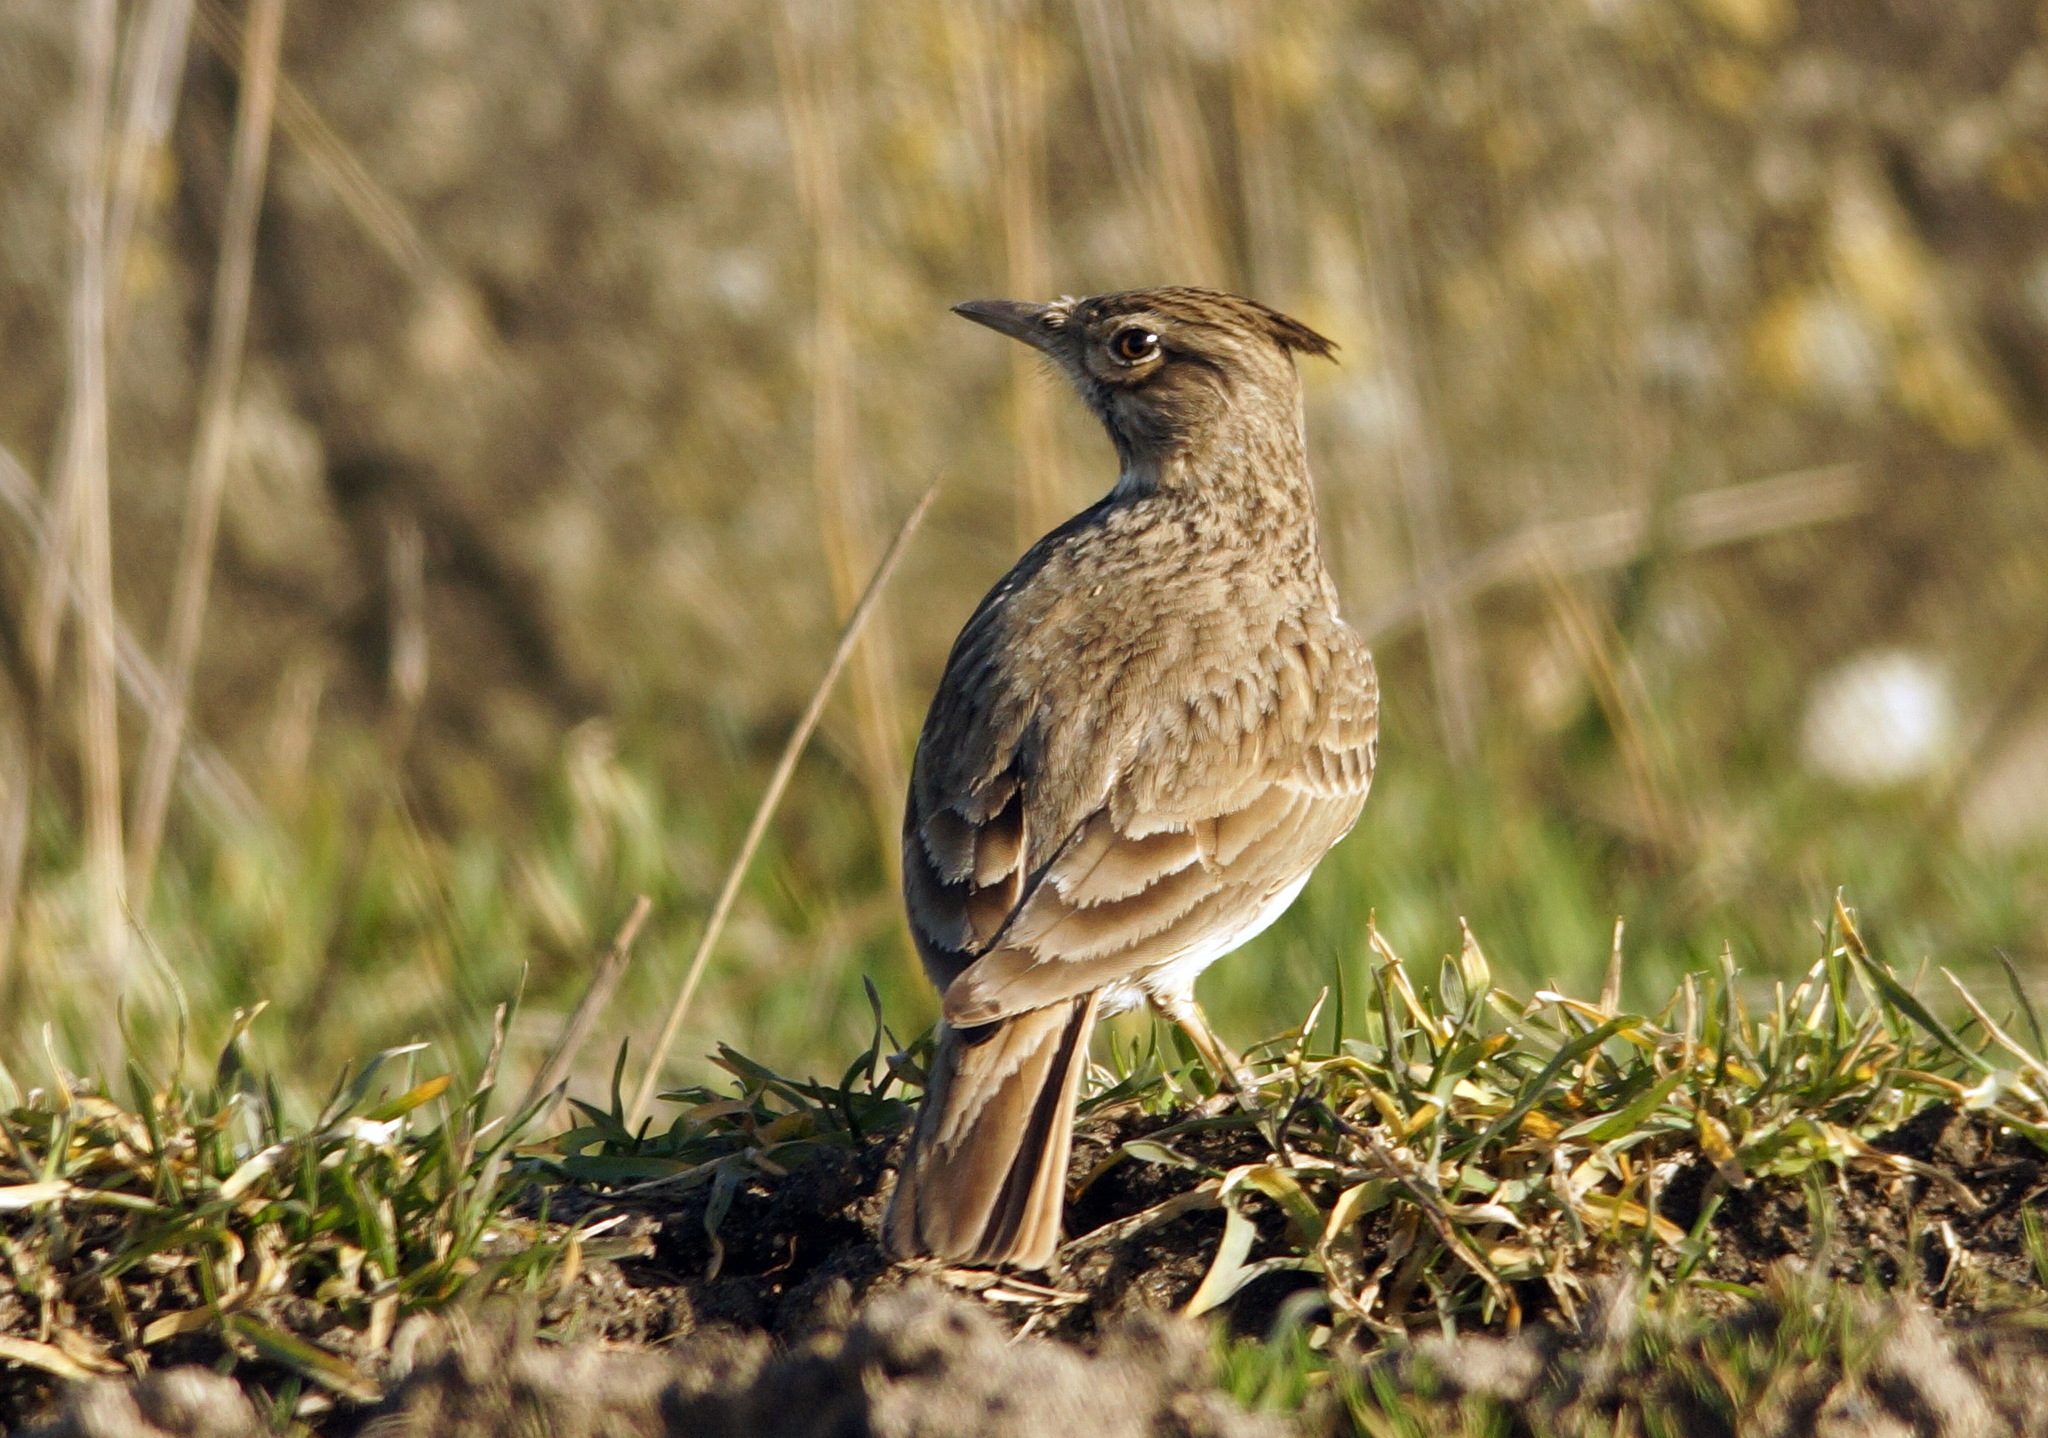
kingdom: Animalia
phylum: Chordata
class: Aves
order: Passeriformes
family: Alaudidae
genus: Galerida
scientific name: Galerida cristata
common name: Crested lark
